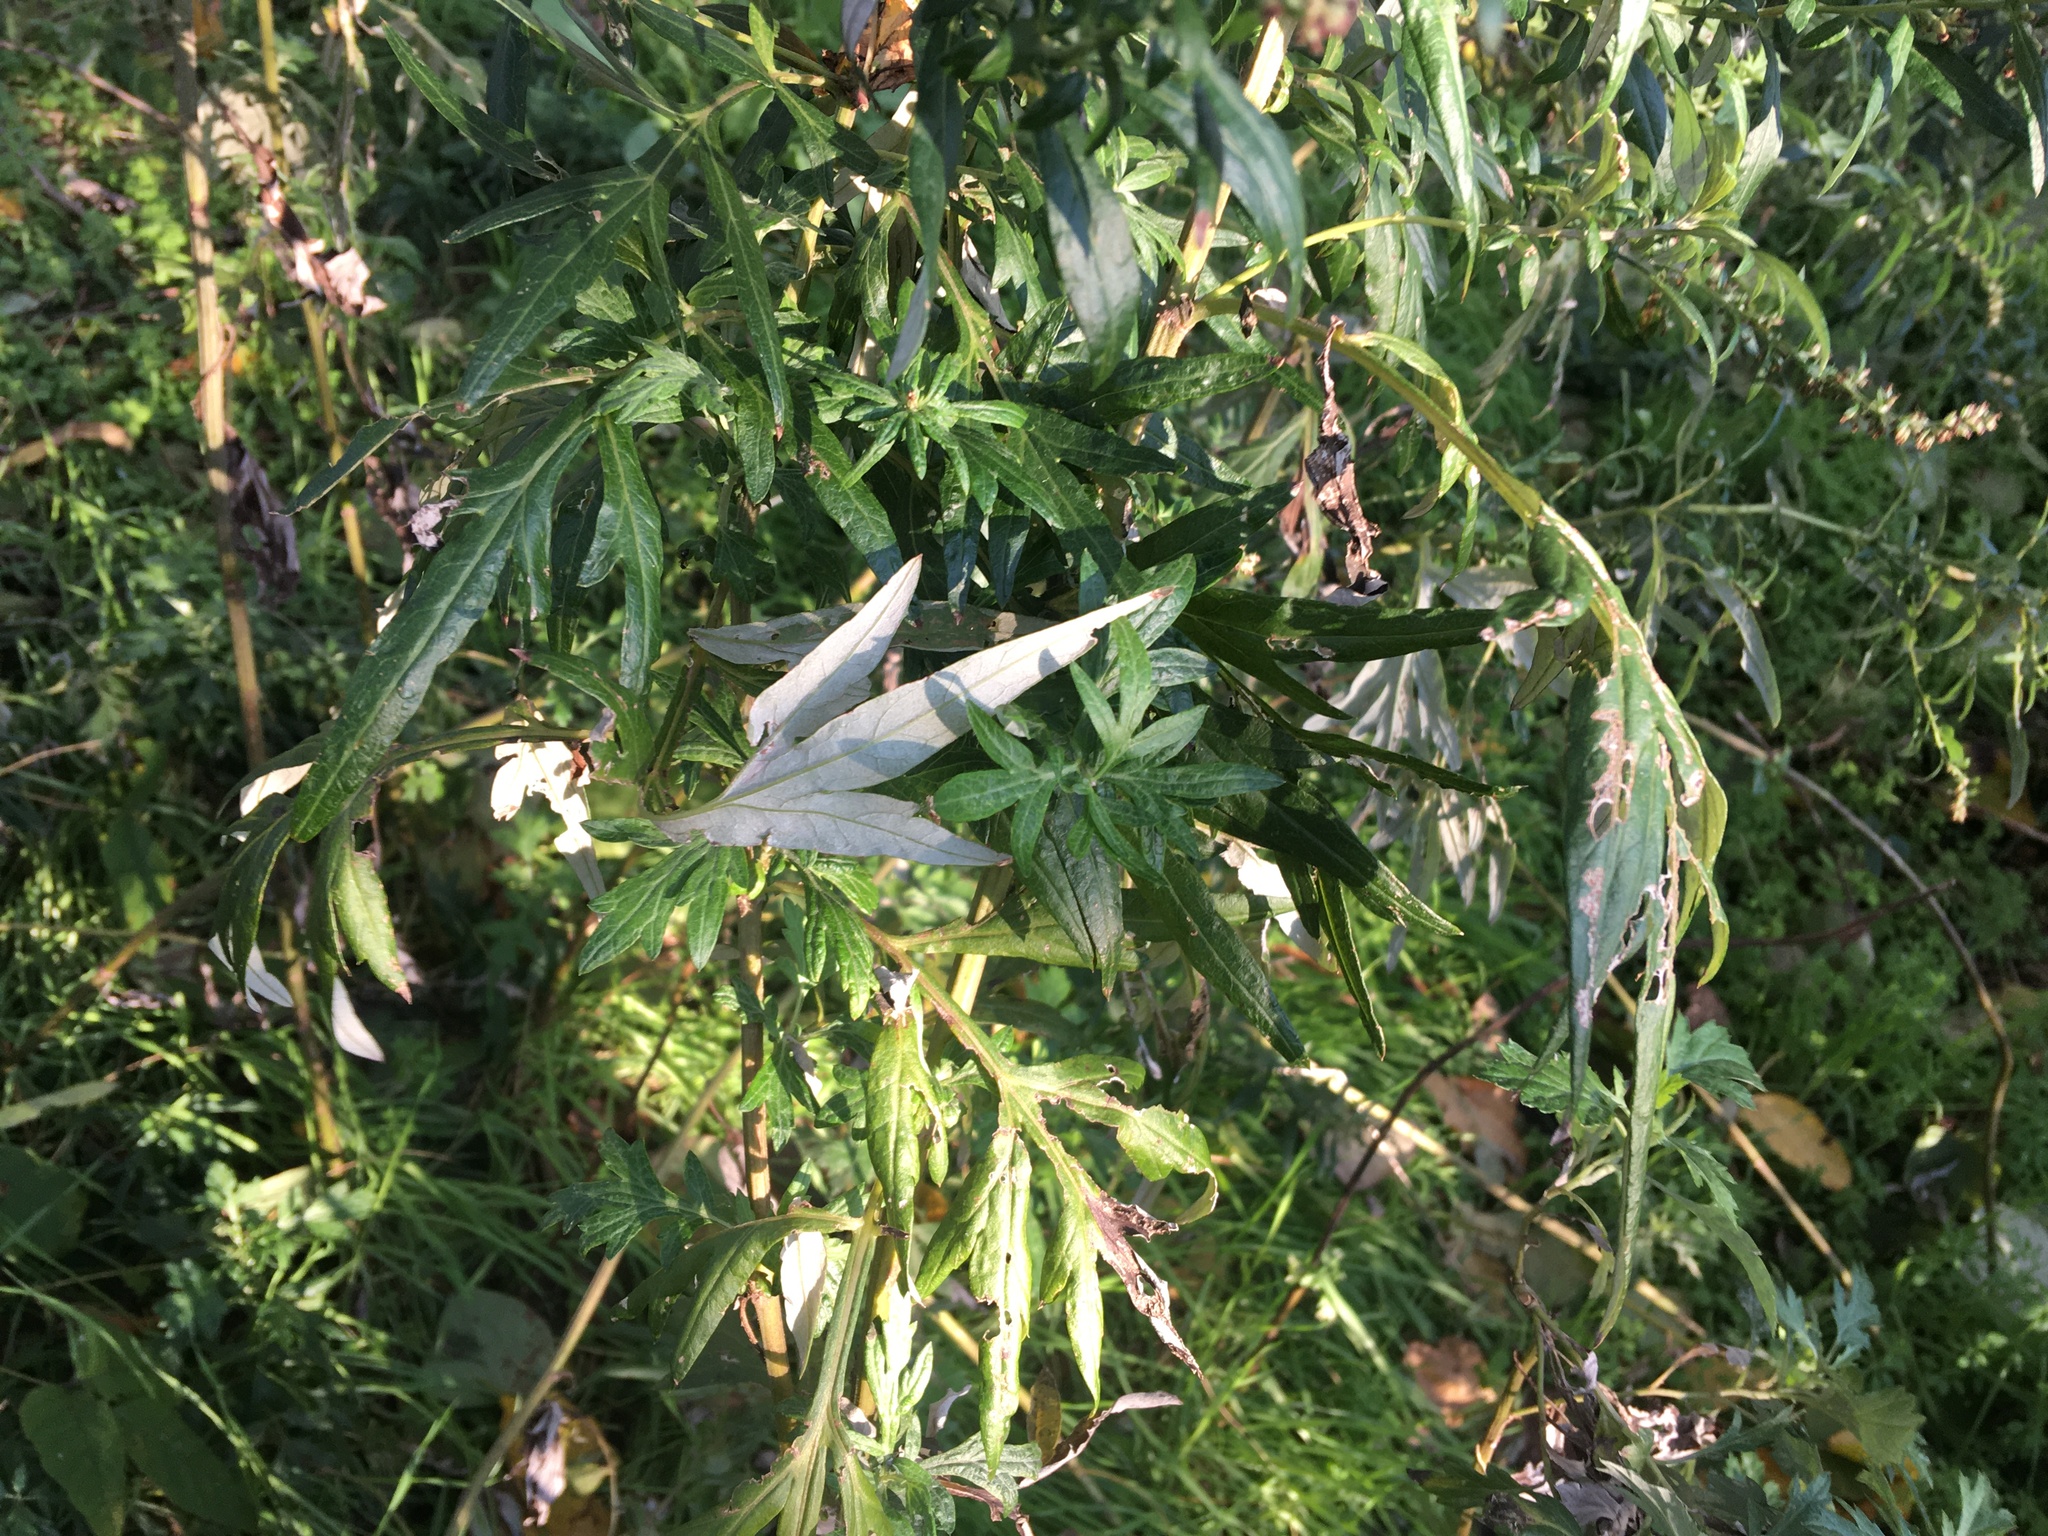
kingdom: Plantae
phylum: Tracheophyta
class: Magnoliopsida
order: Asterales
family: Asteraceae
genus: Artemisia
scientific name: Artemisia vulgaris
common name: Mugwort
